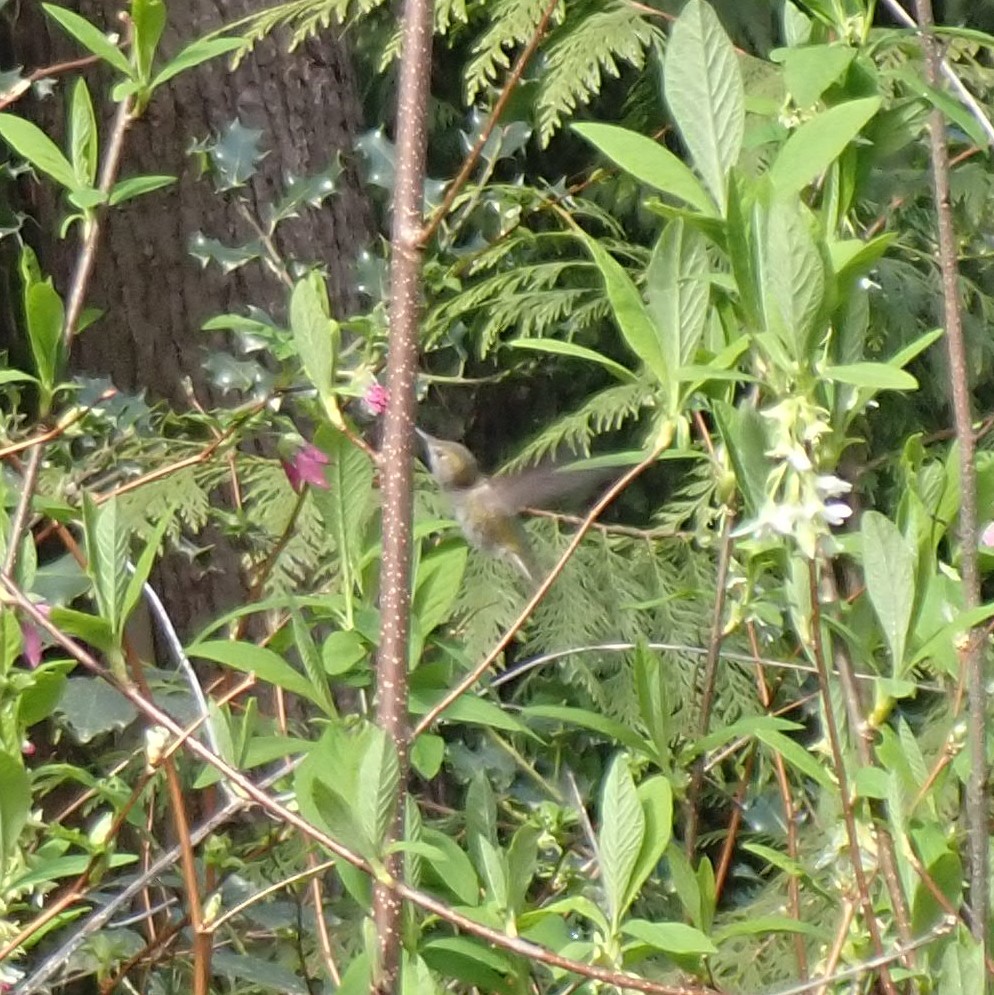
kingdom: Animalia
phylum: Chordata
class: Aves
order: Apodiformes
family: Trochilidae
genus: Calypte
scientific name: Calypte anna
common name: Anna's hummingbird
